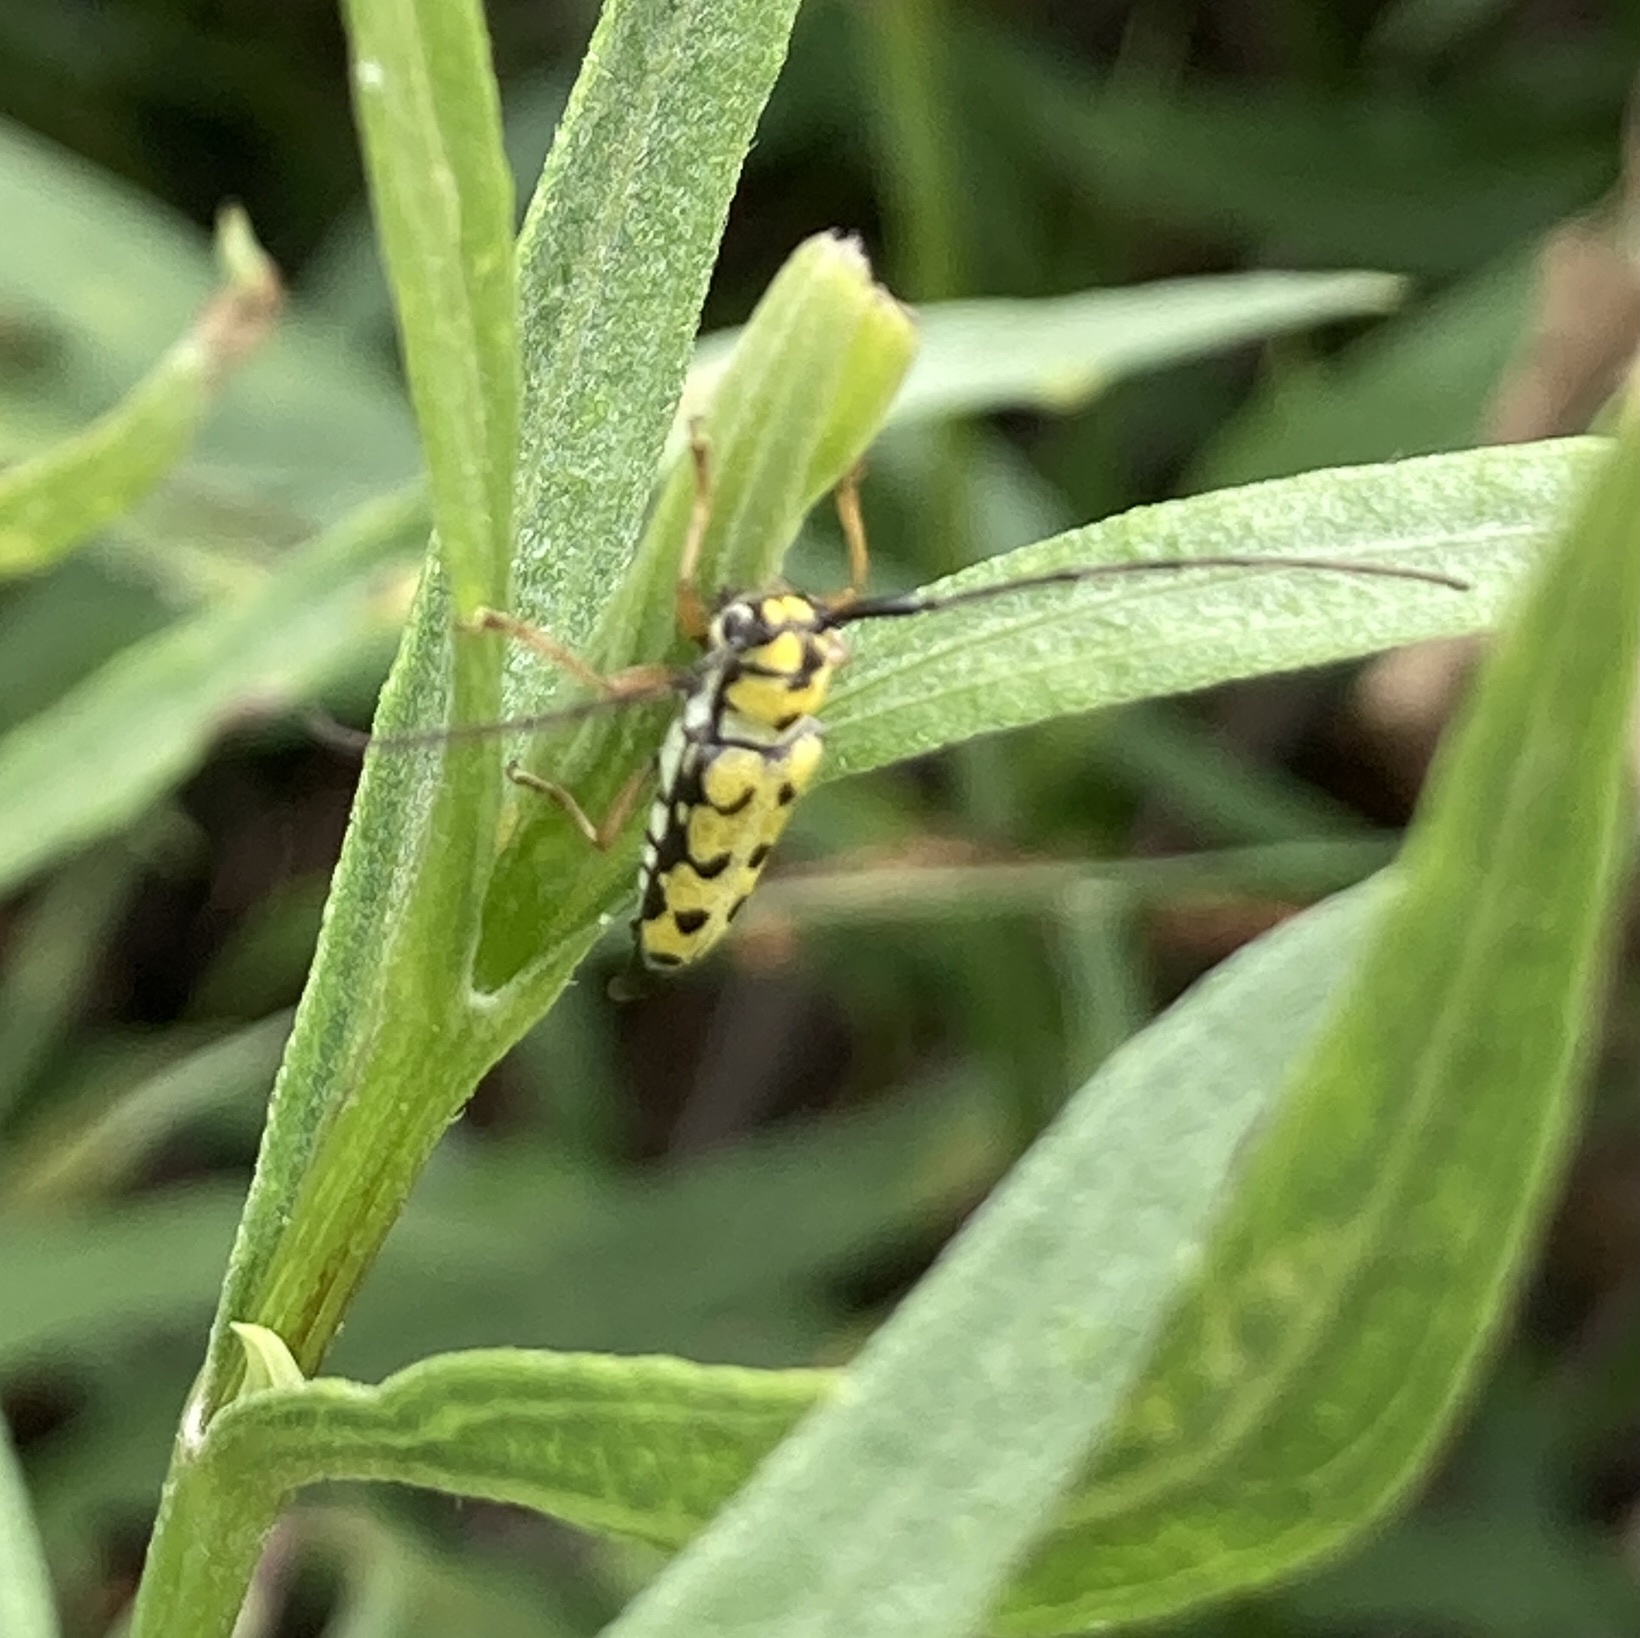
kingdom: Animalia
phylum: Arthropoda
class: Insecta
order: Coleoptera
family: Cerambycidae
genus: Zeale
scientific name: Zeale nigromaculata
